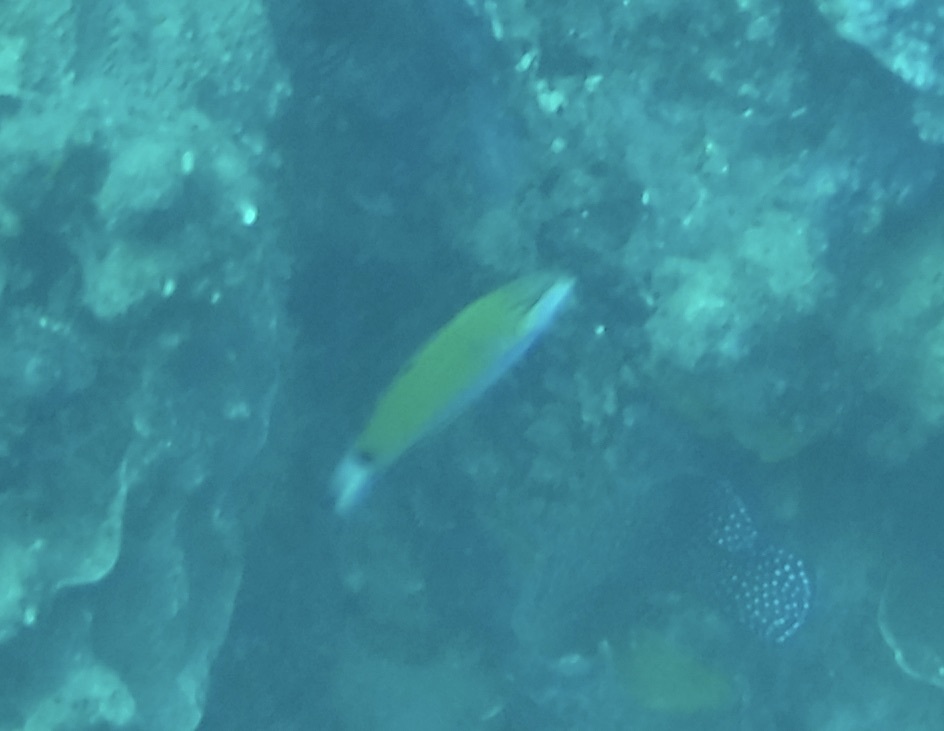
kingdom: Animalia
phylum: Chordata
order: Perciformes
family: Labridae
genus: Thalassoma
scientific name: Thalassoma lunare
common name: Blue wrasse
